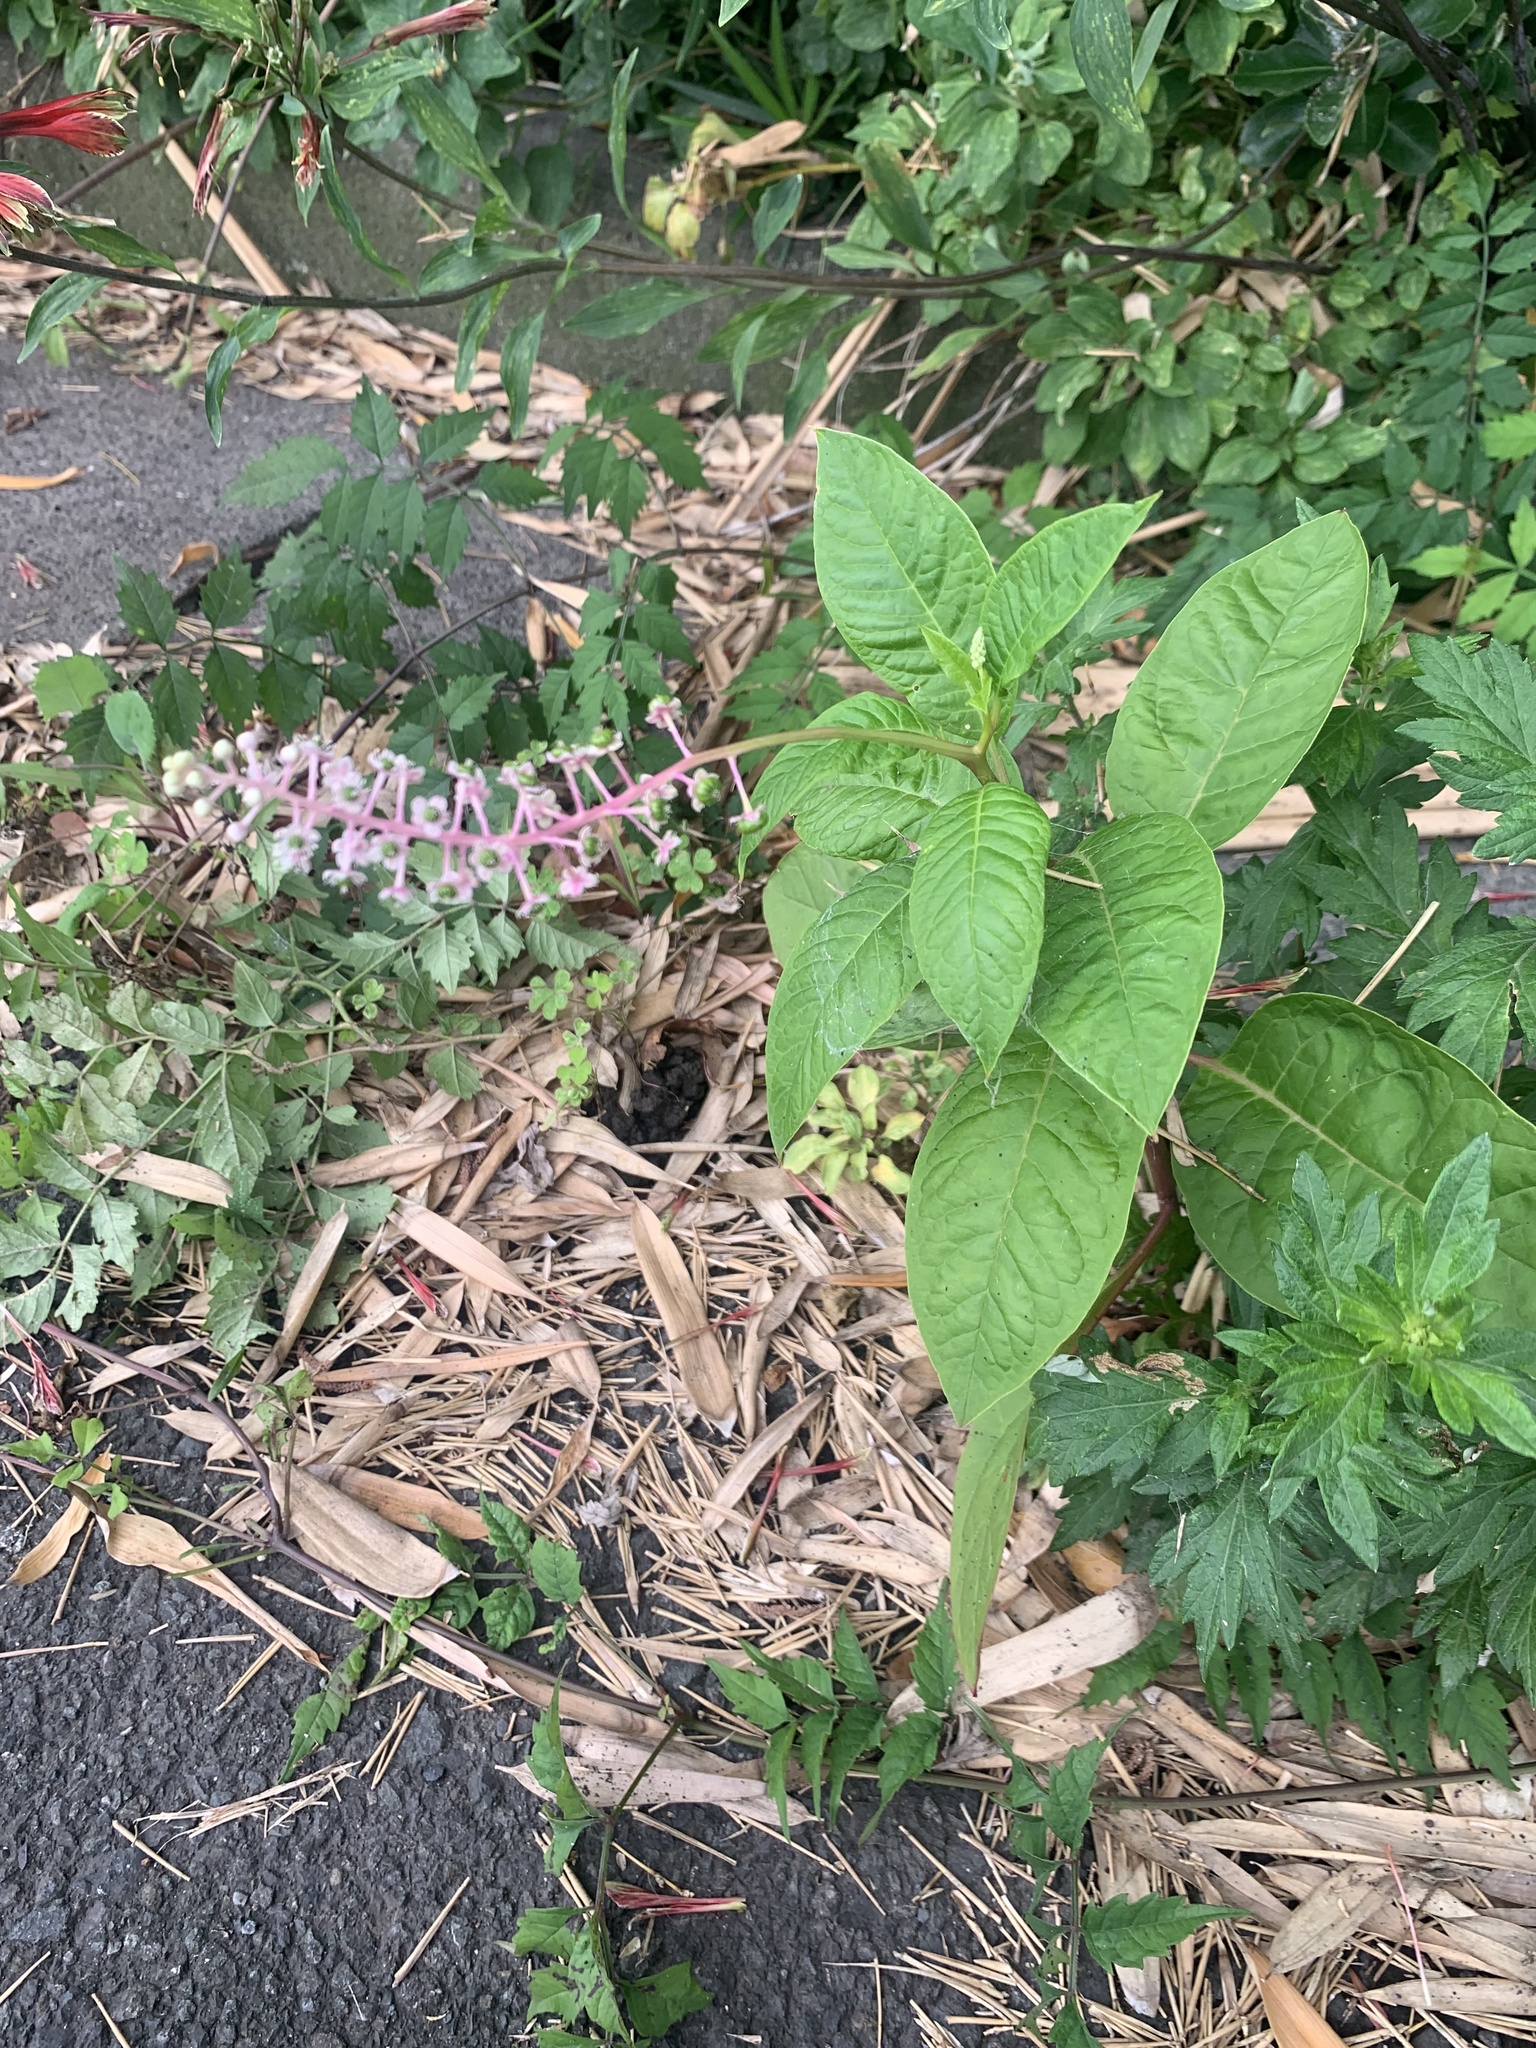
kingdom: Plantae
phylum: Tracheophyta
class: Magnoliopsida
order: Caryophyllales
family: Phytolaccaceae
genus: Phytolacca
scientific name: Phytolacca americana
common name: American pokeweed
